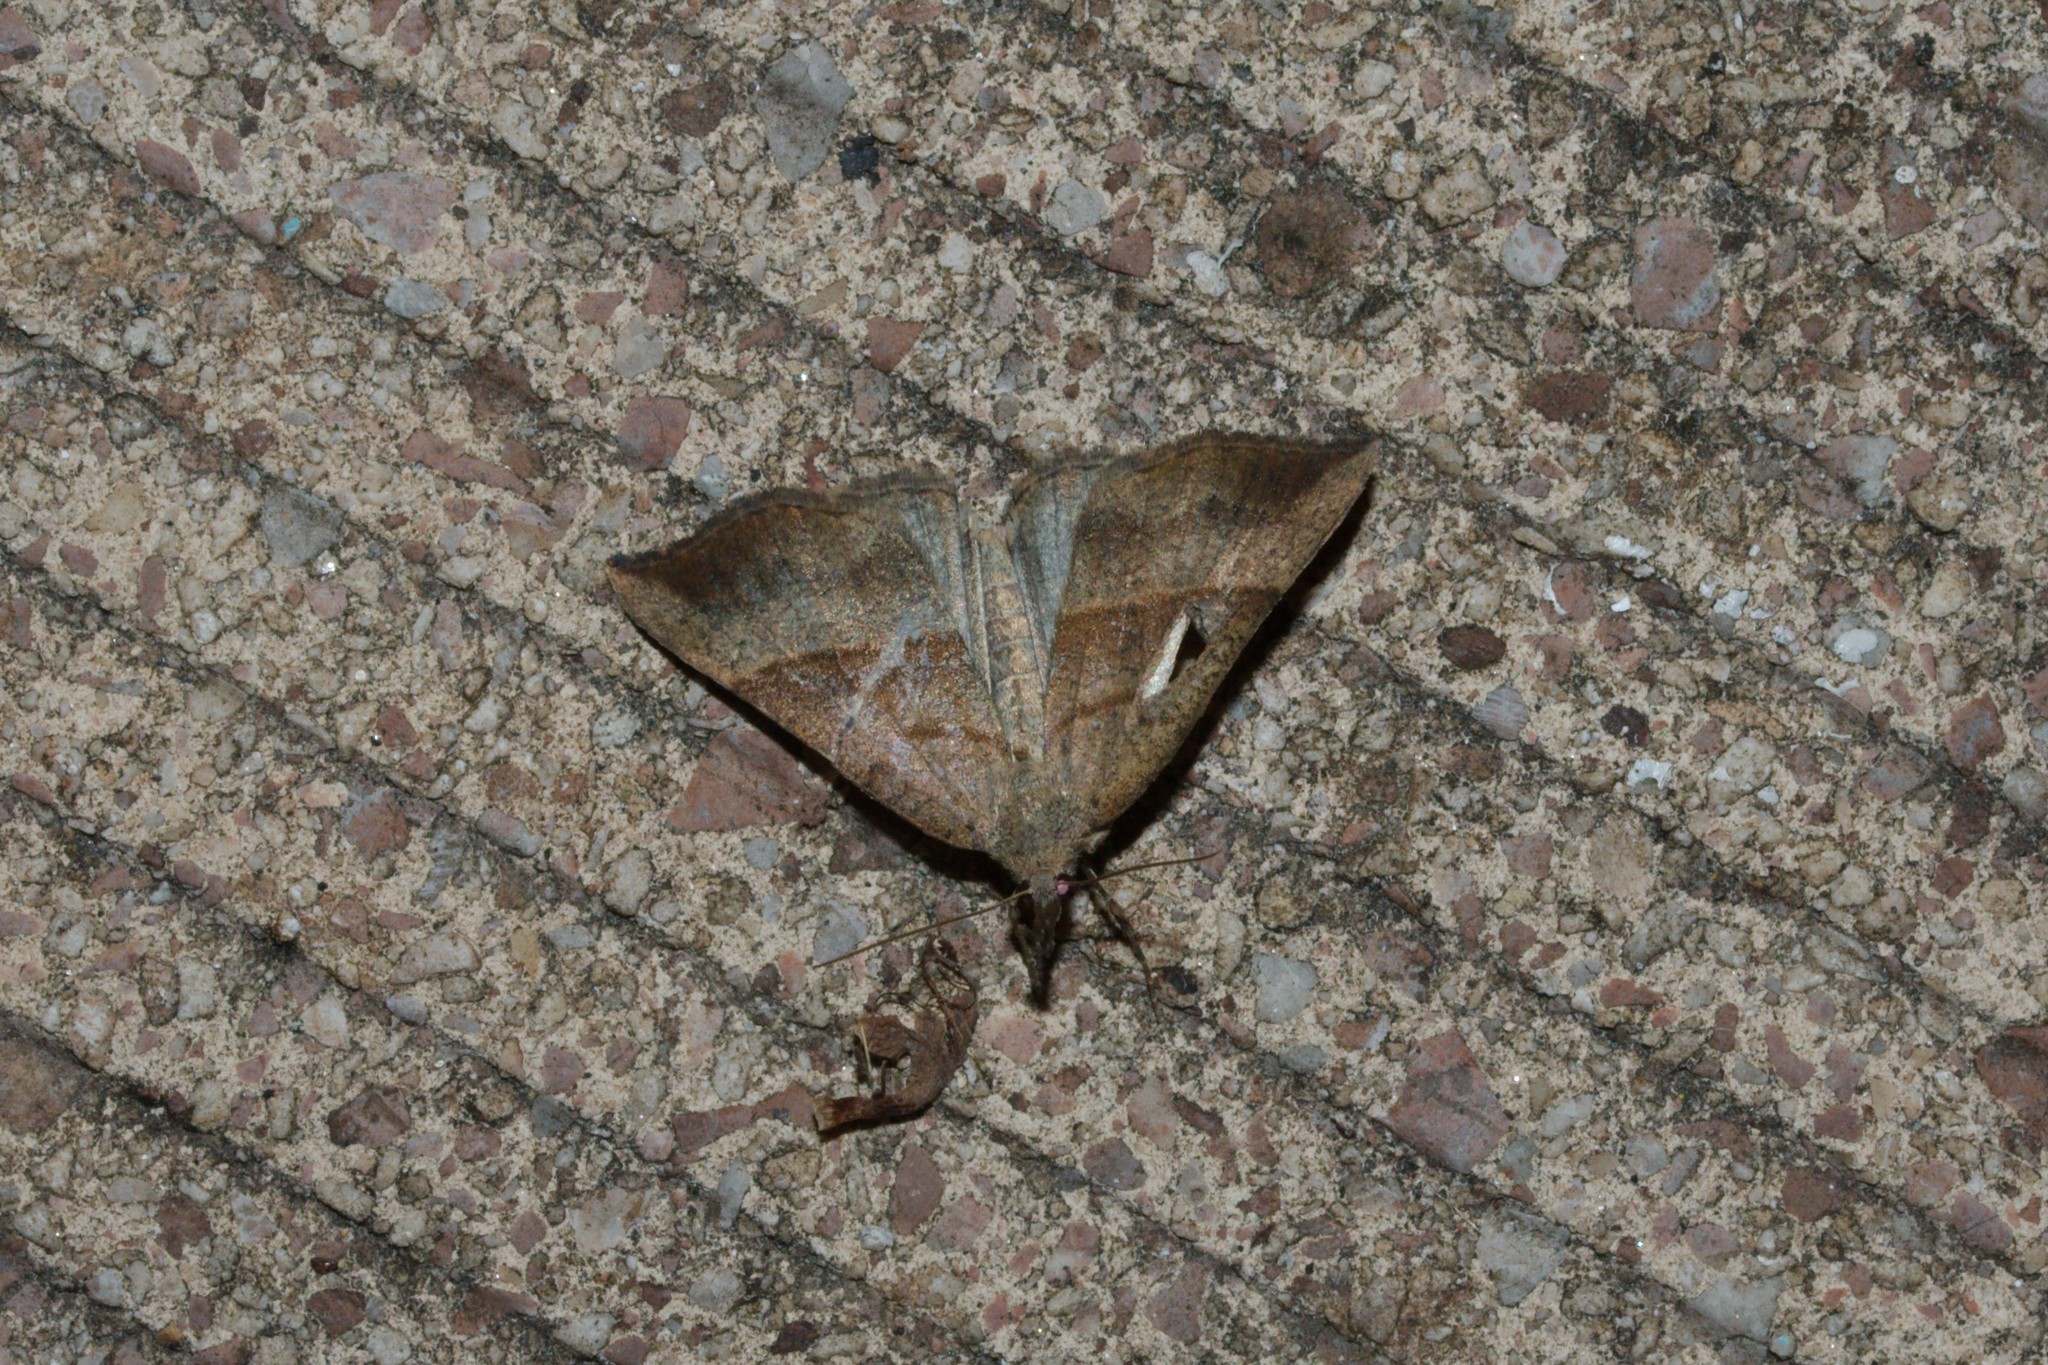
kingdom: Animalia
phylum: Arthropoda
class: Insecta
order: Lepidoptera
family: Erebidae
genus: Hypena
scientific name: Hypena proboscidalis
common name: Snout
